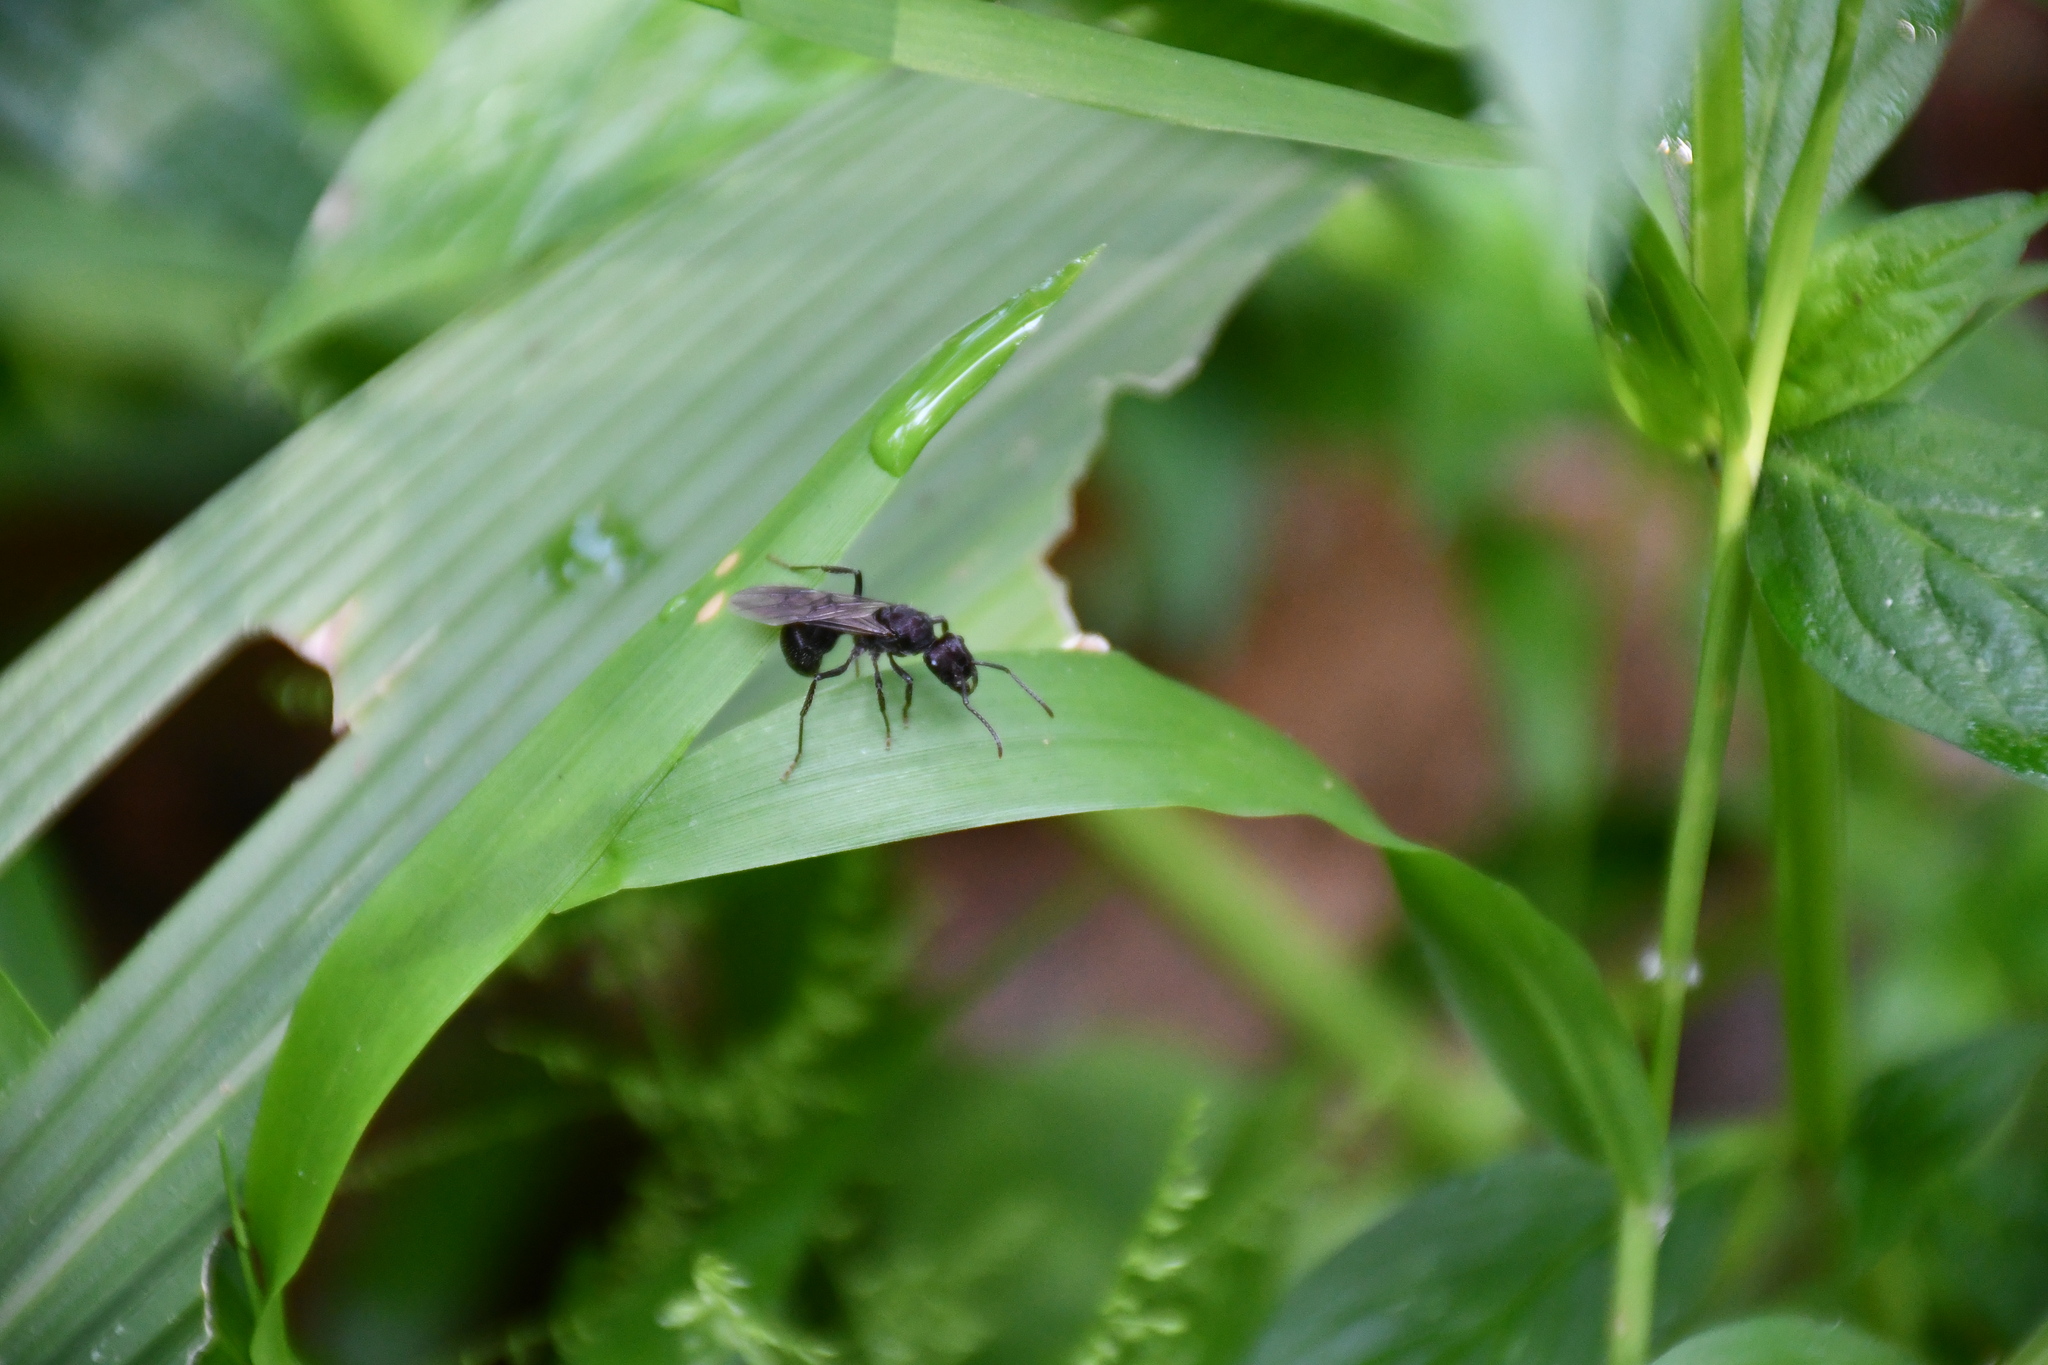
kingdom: Animalia
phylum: Arthropoda
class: Insecta
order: Hymenoptera
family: Formicidae
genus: Ectatomma
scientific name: Ectatomma brunneum
